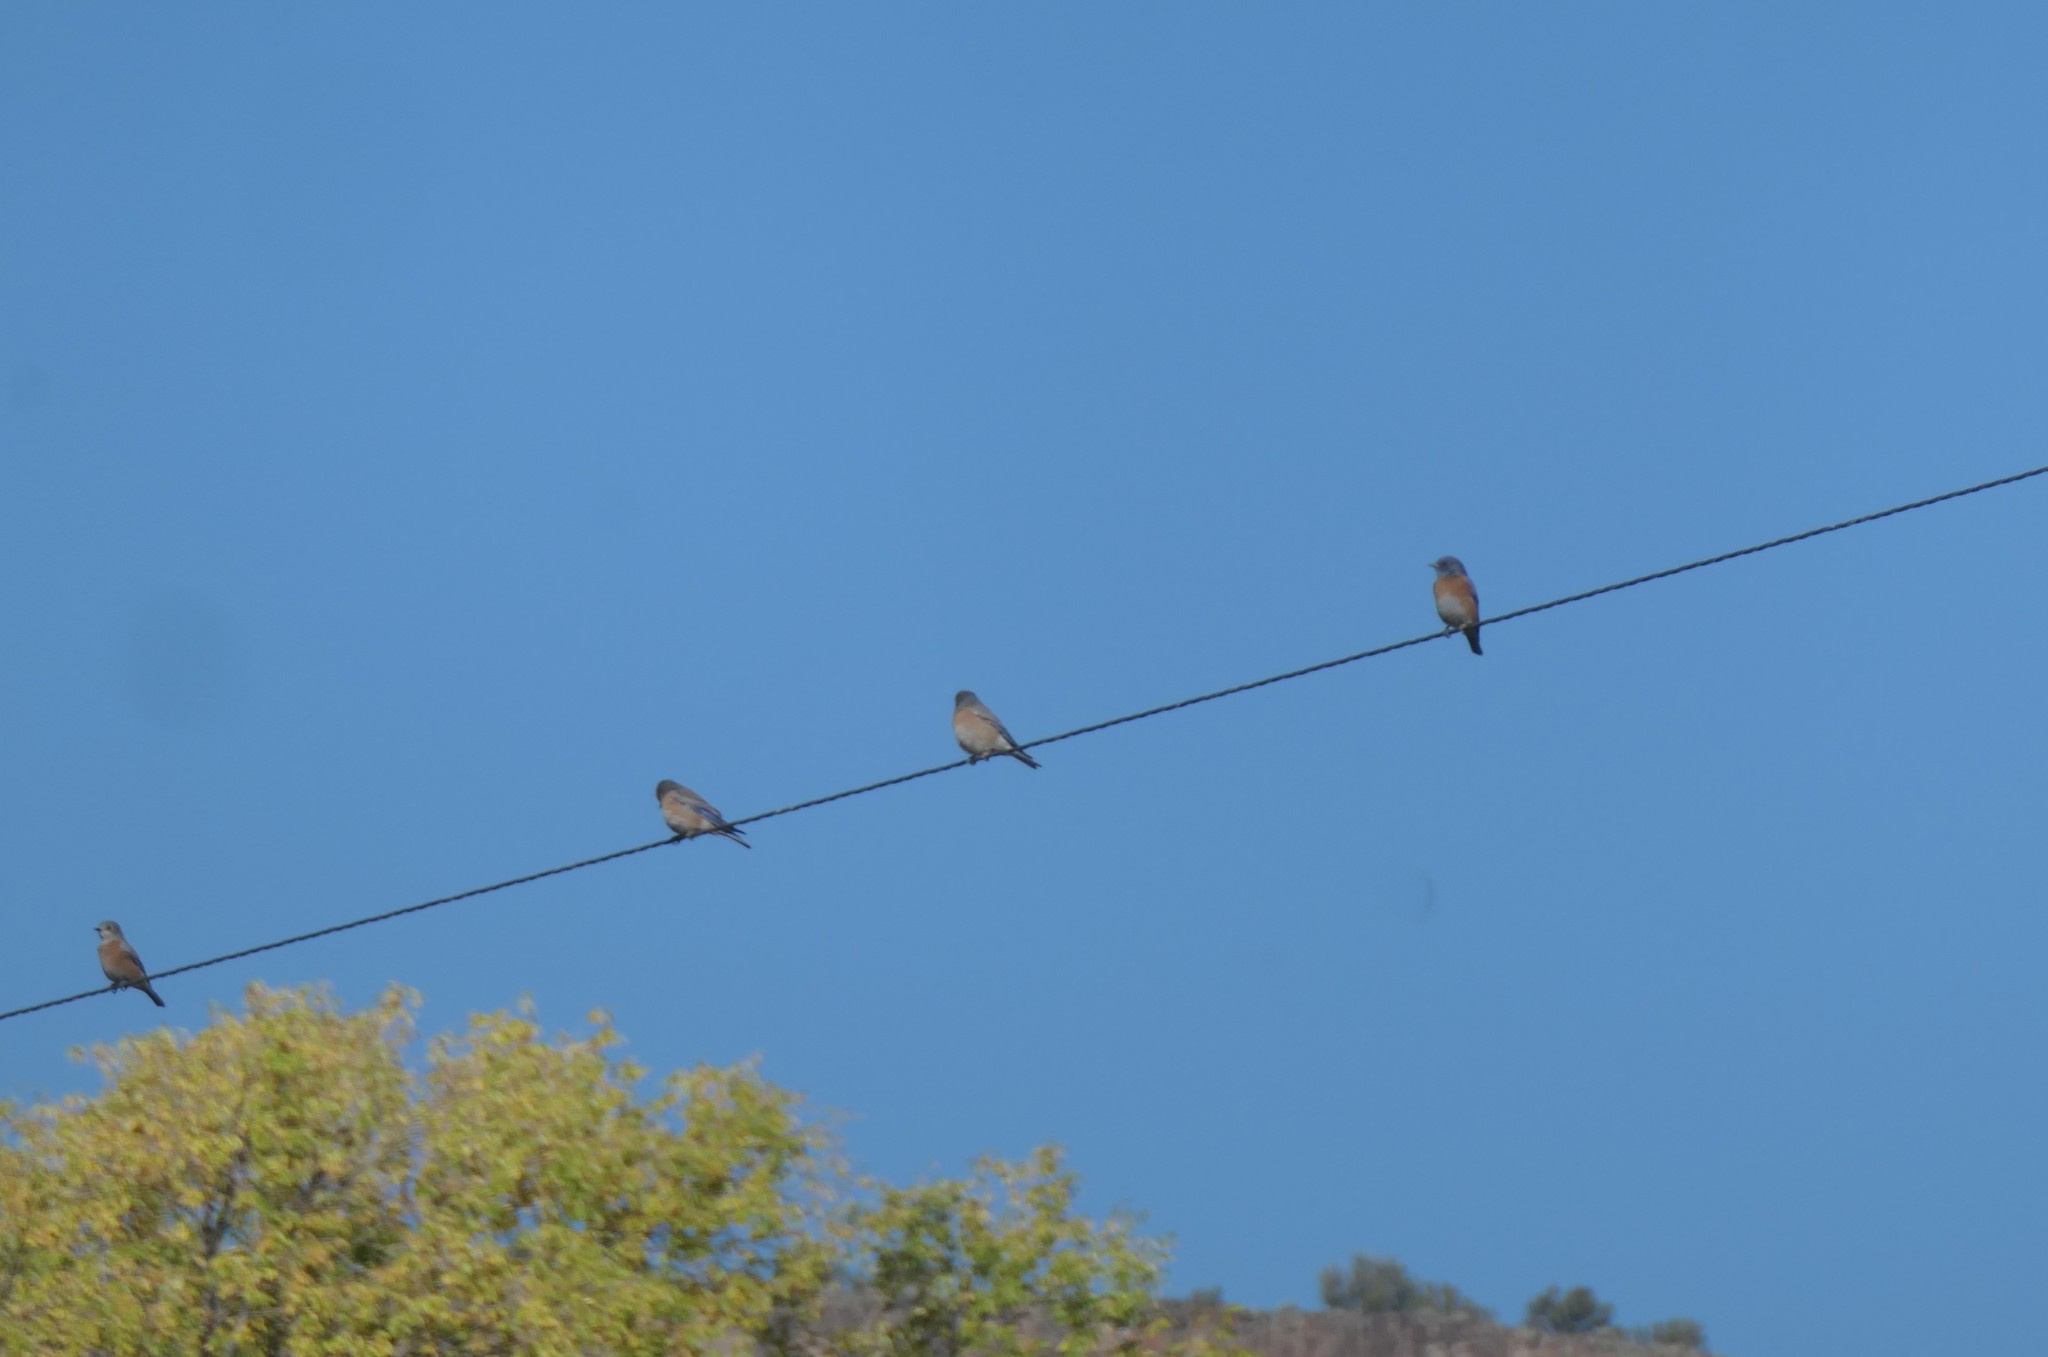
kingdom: Animalia
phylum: Chordata
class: Aves
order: Passeriformes
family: Turdidae
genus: Sialia
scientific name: Sialia mexicana
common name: Western bluebird
